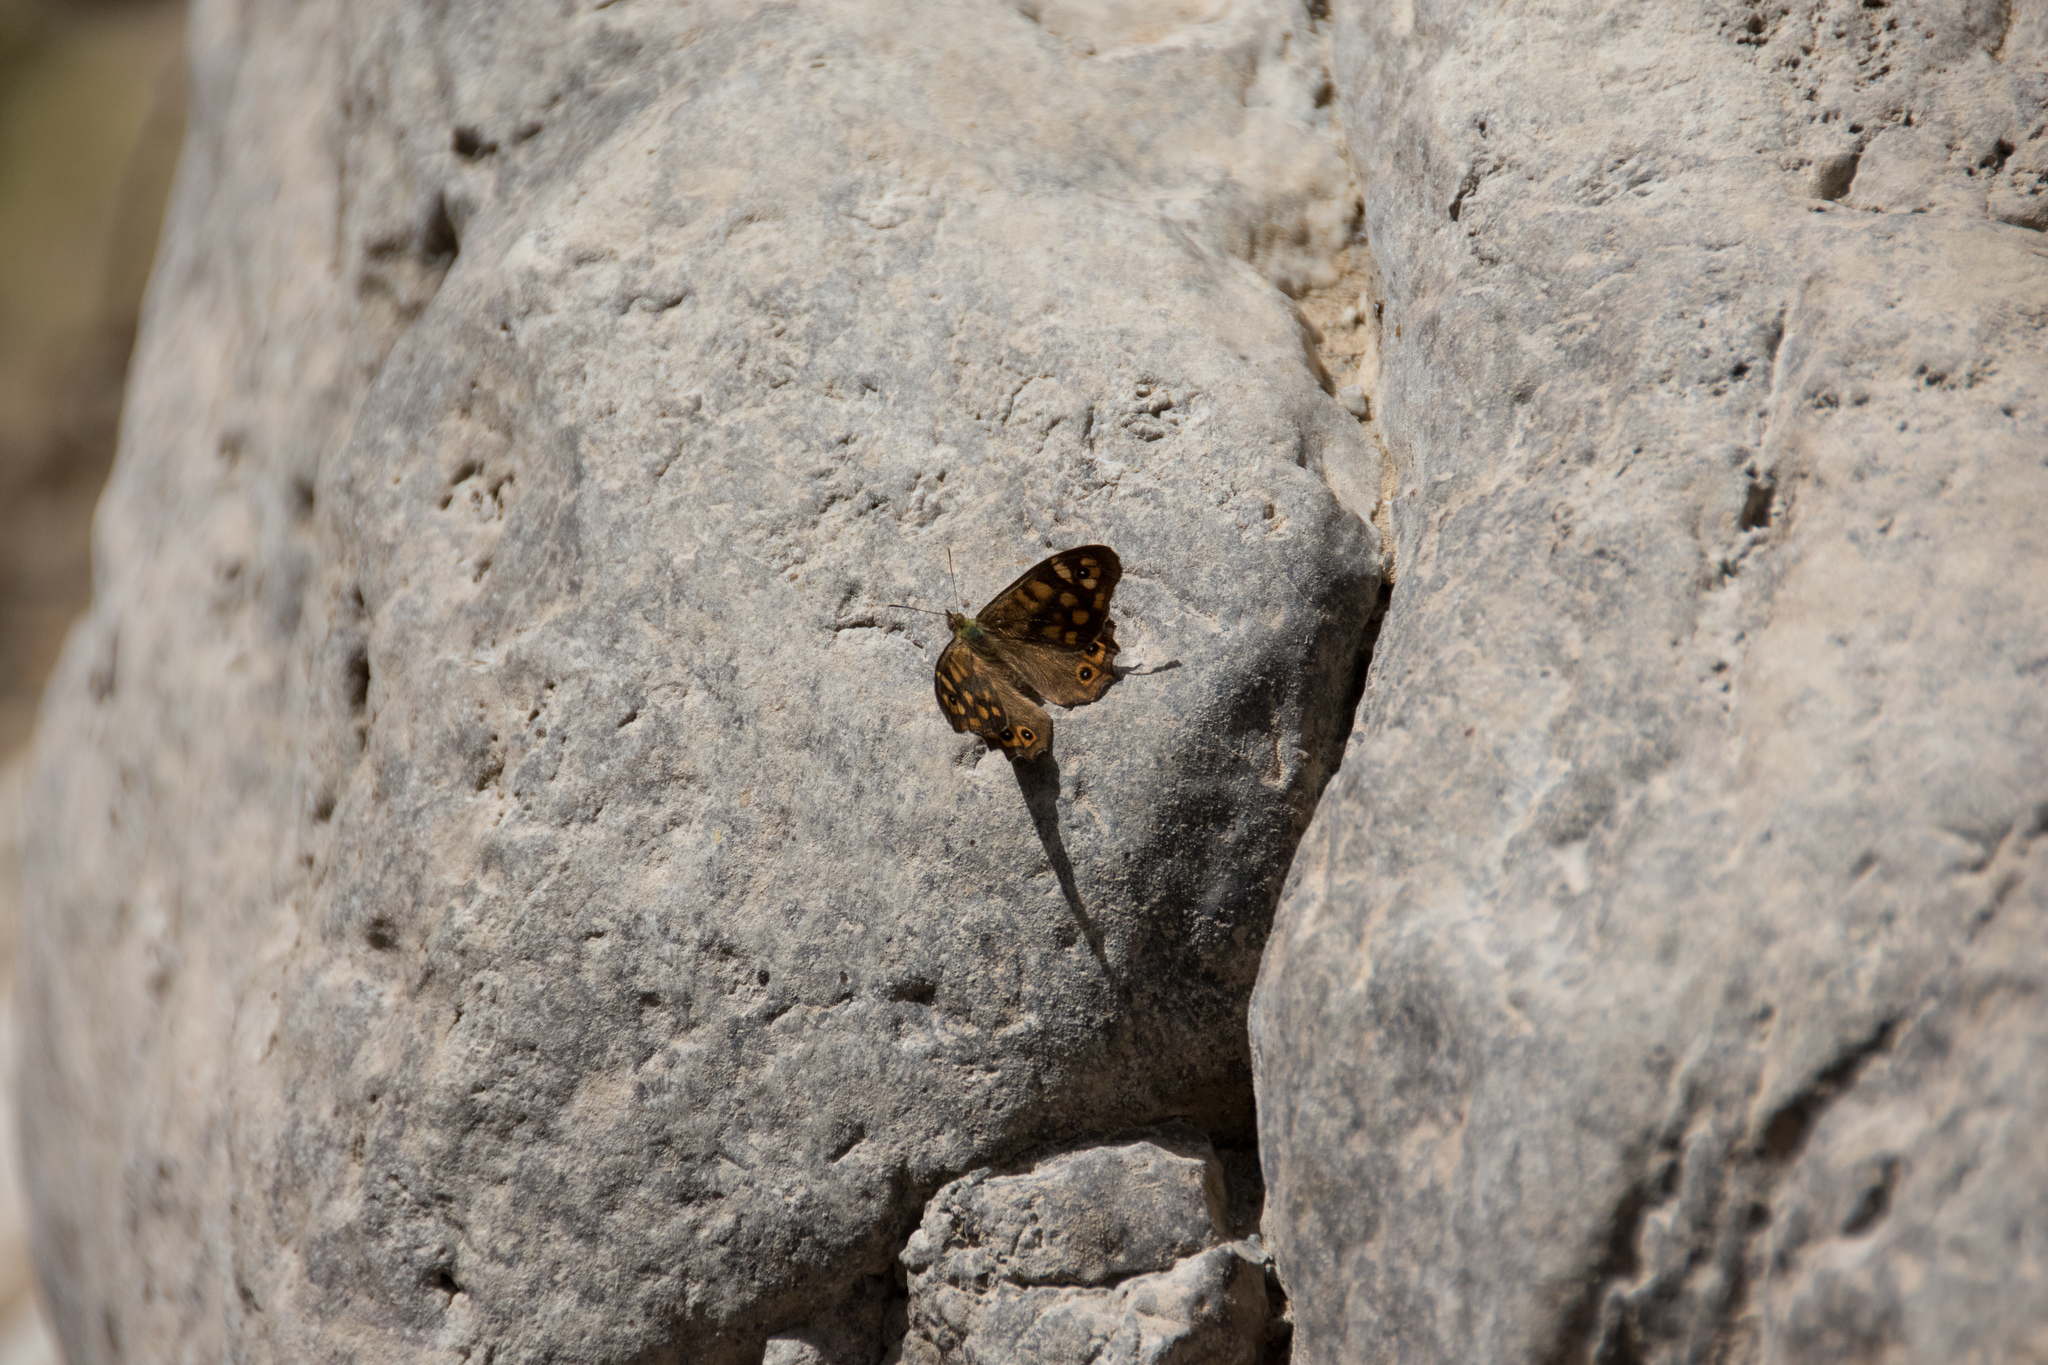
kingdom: Animalia
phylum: Arthropoda
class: Insecta
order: Lepidoptera
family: Nymphalidae
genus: Pararge
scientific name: Pararge aegeria
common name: Speckled wood
